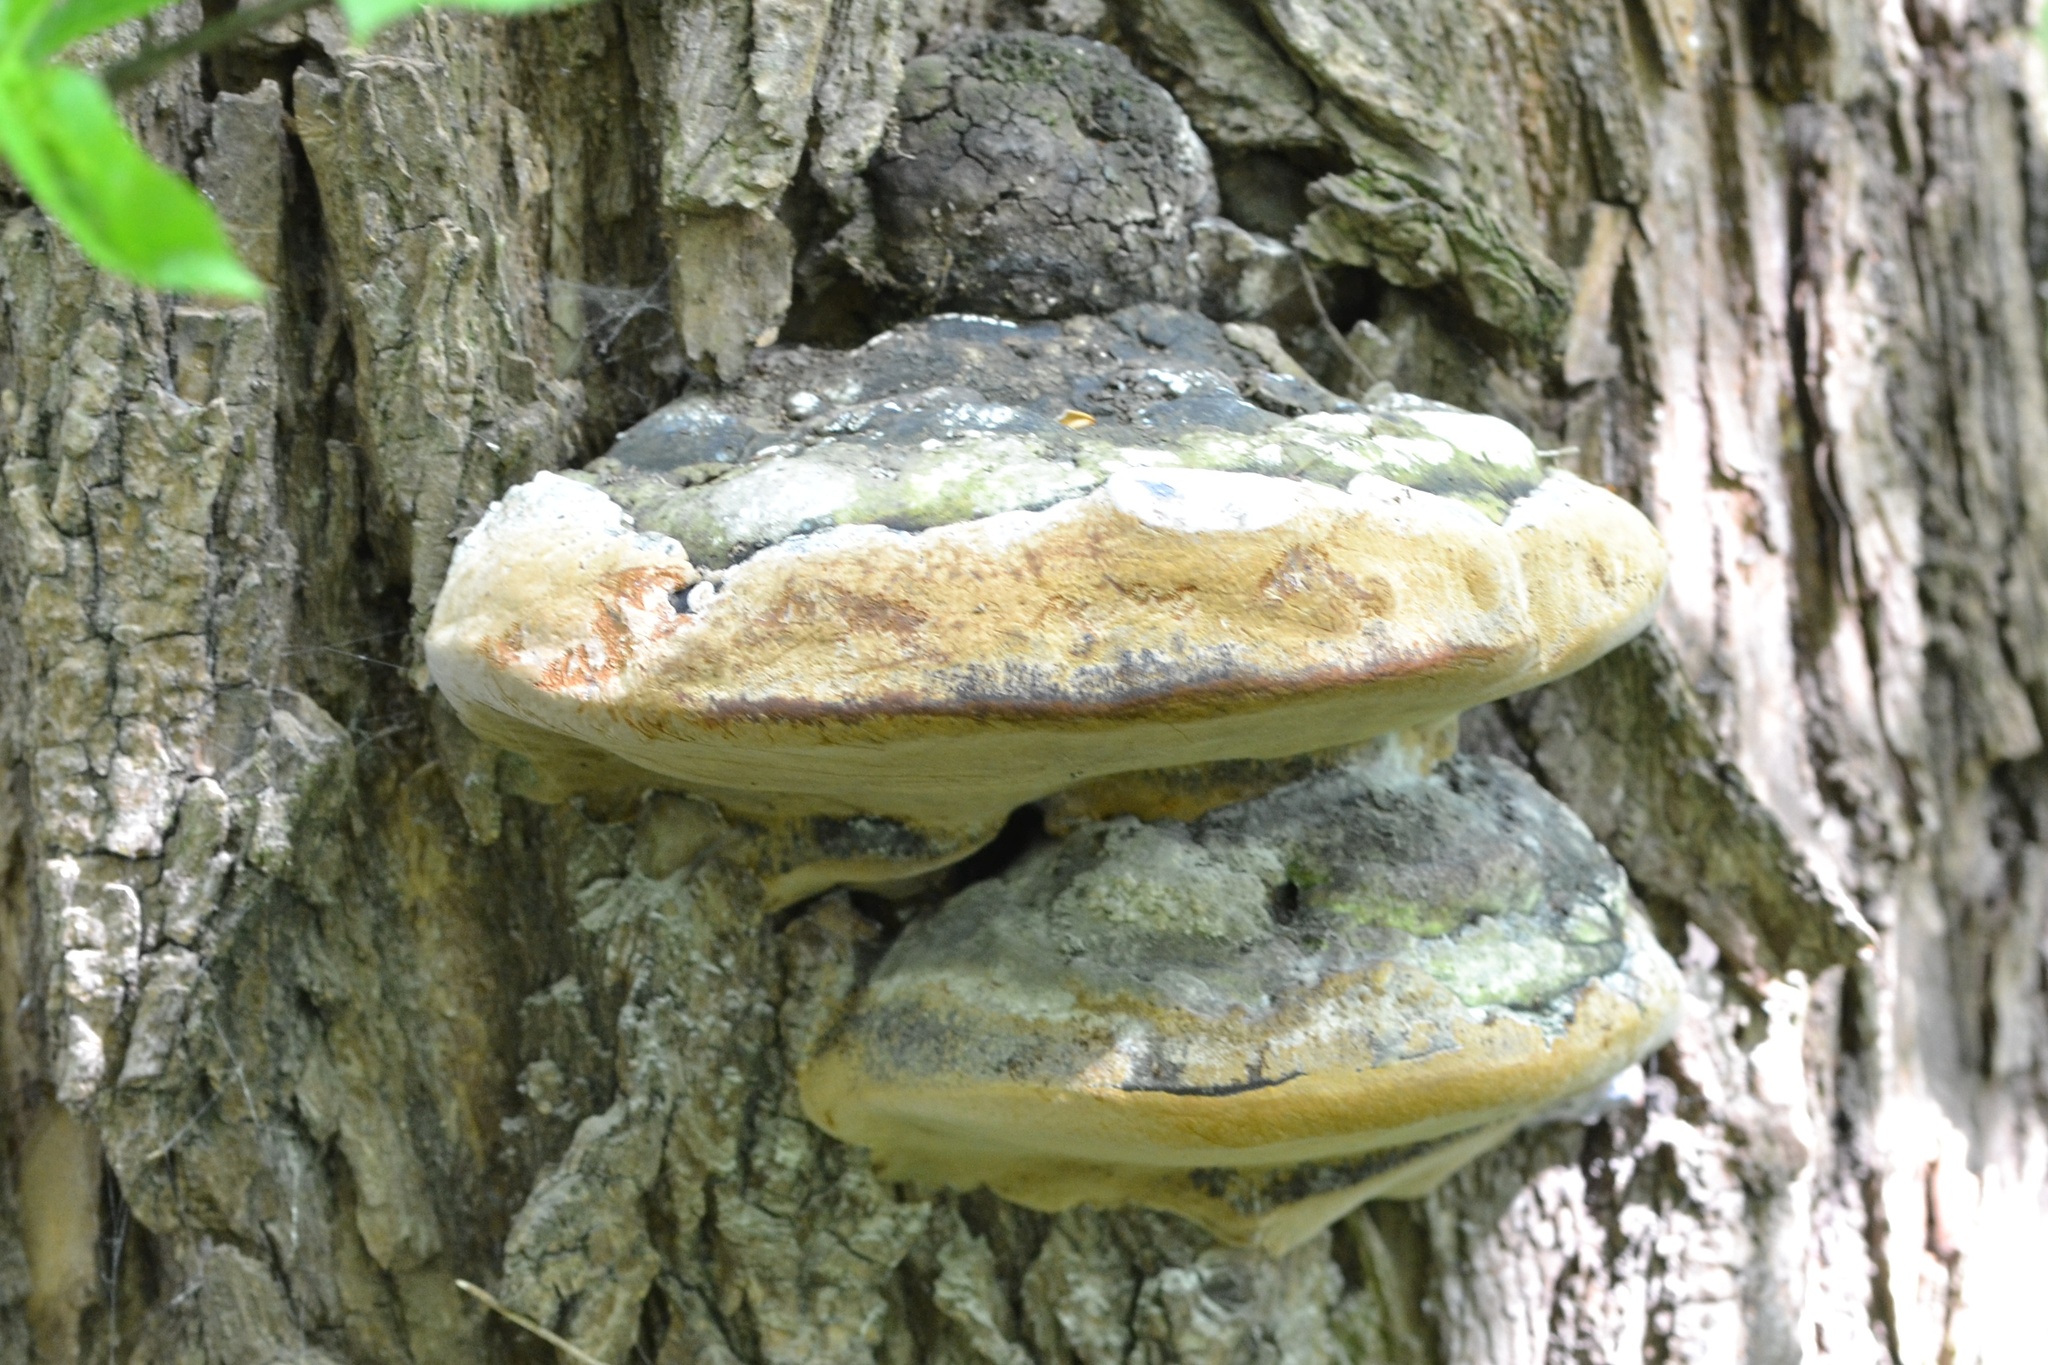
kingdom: Fungi
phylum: Basidiomycota
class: Agaricomycetes
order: Hymenochaetales
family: Hymenochaetaceae
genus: Phellinus
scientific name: Phellinus igniarius
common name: Willow bracket
